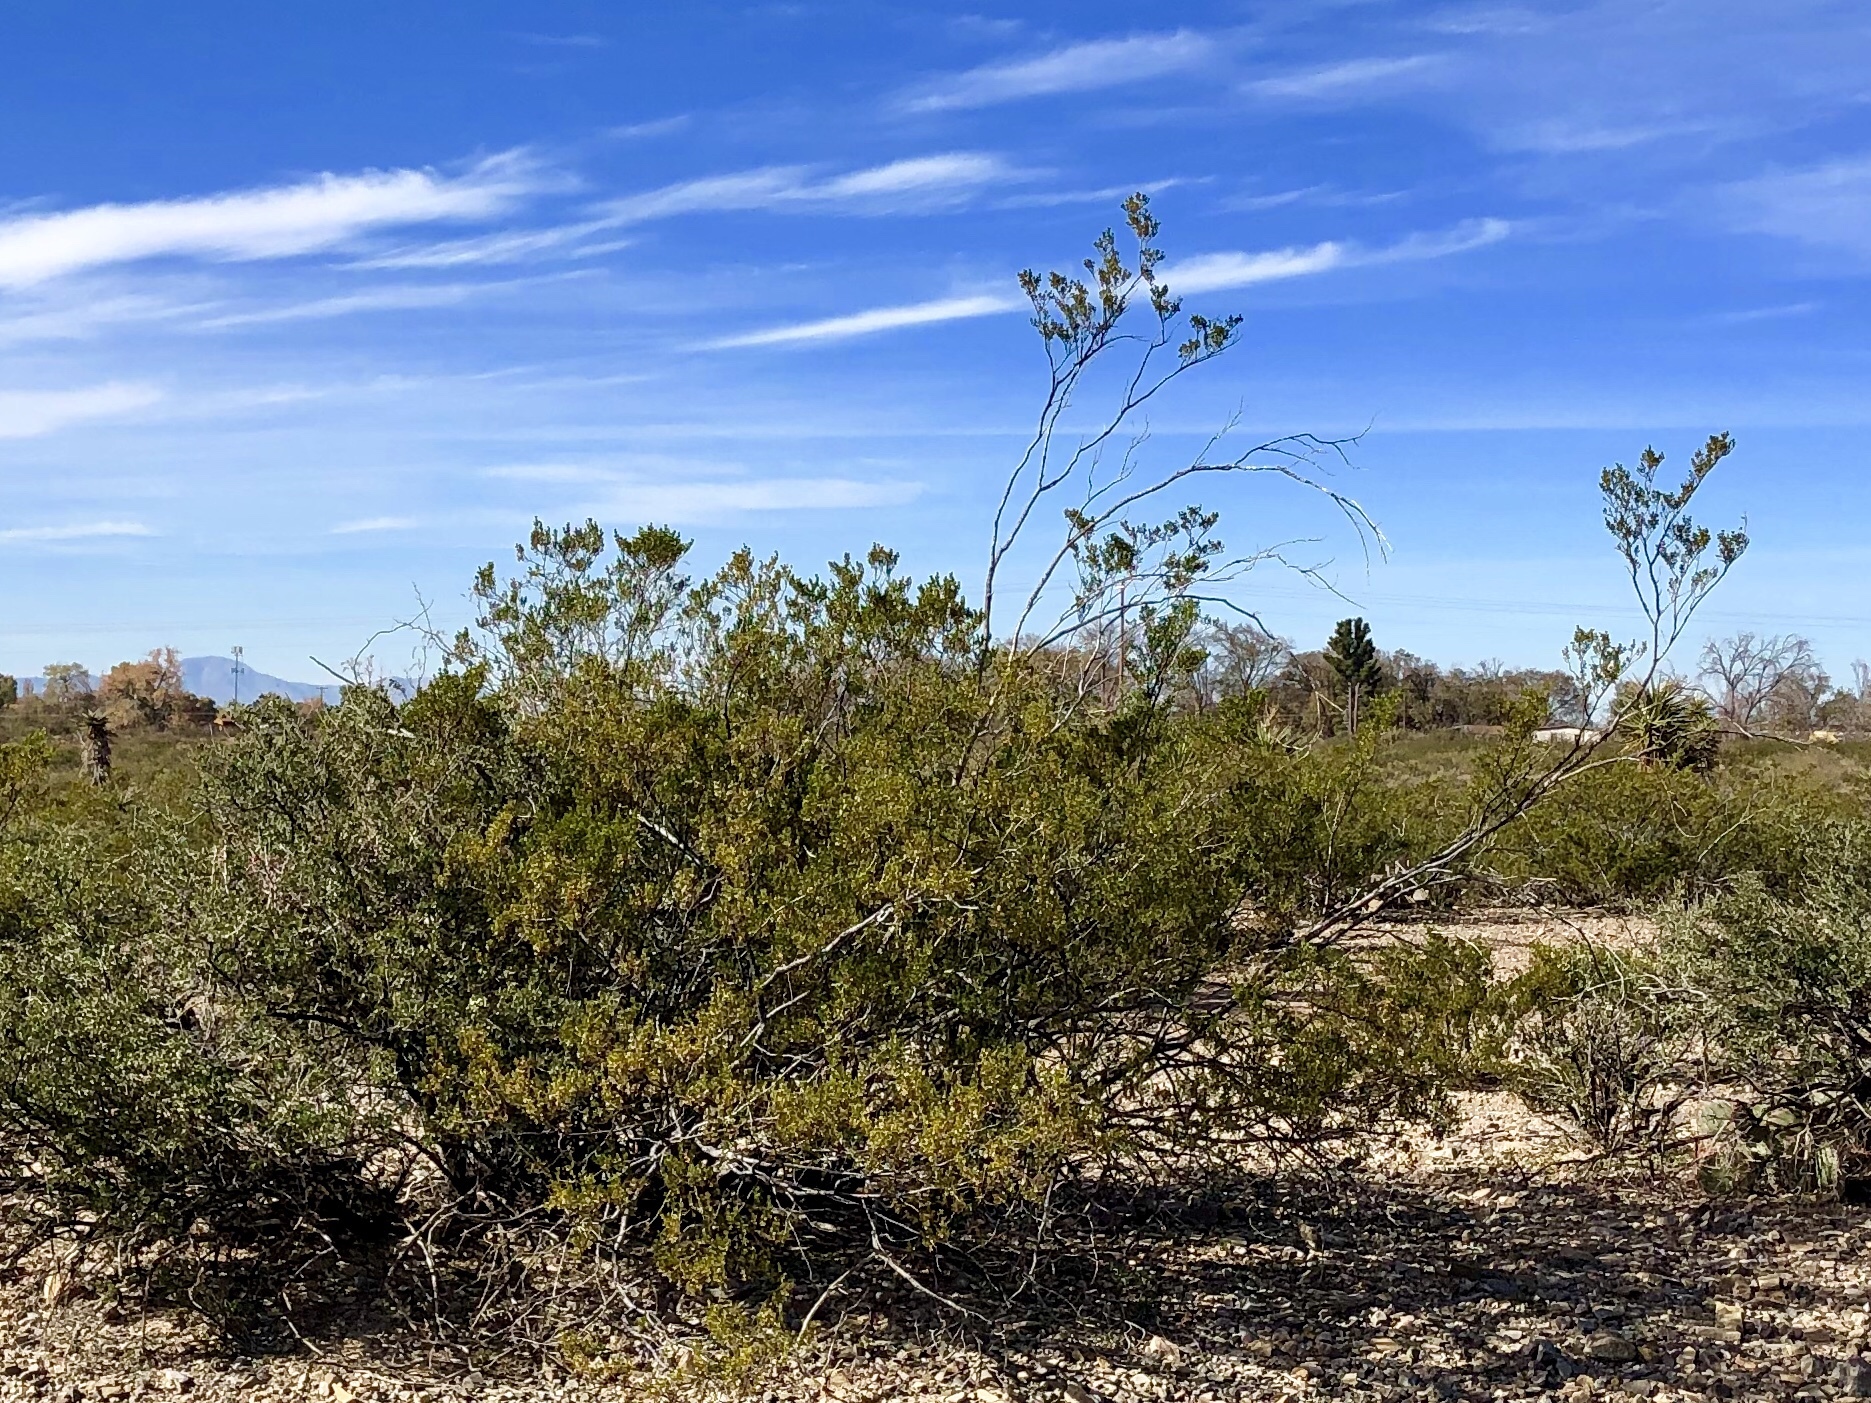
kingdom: Plantae
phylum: Tracheophyta
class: Magnoliopsida
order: Zygophyllales
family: Zygophyllaceae
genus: Larrea
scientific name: Larrea tridentata
